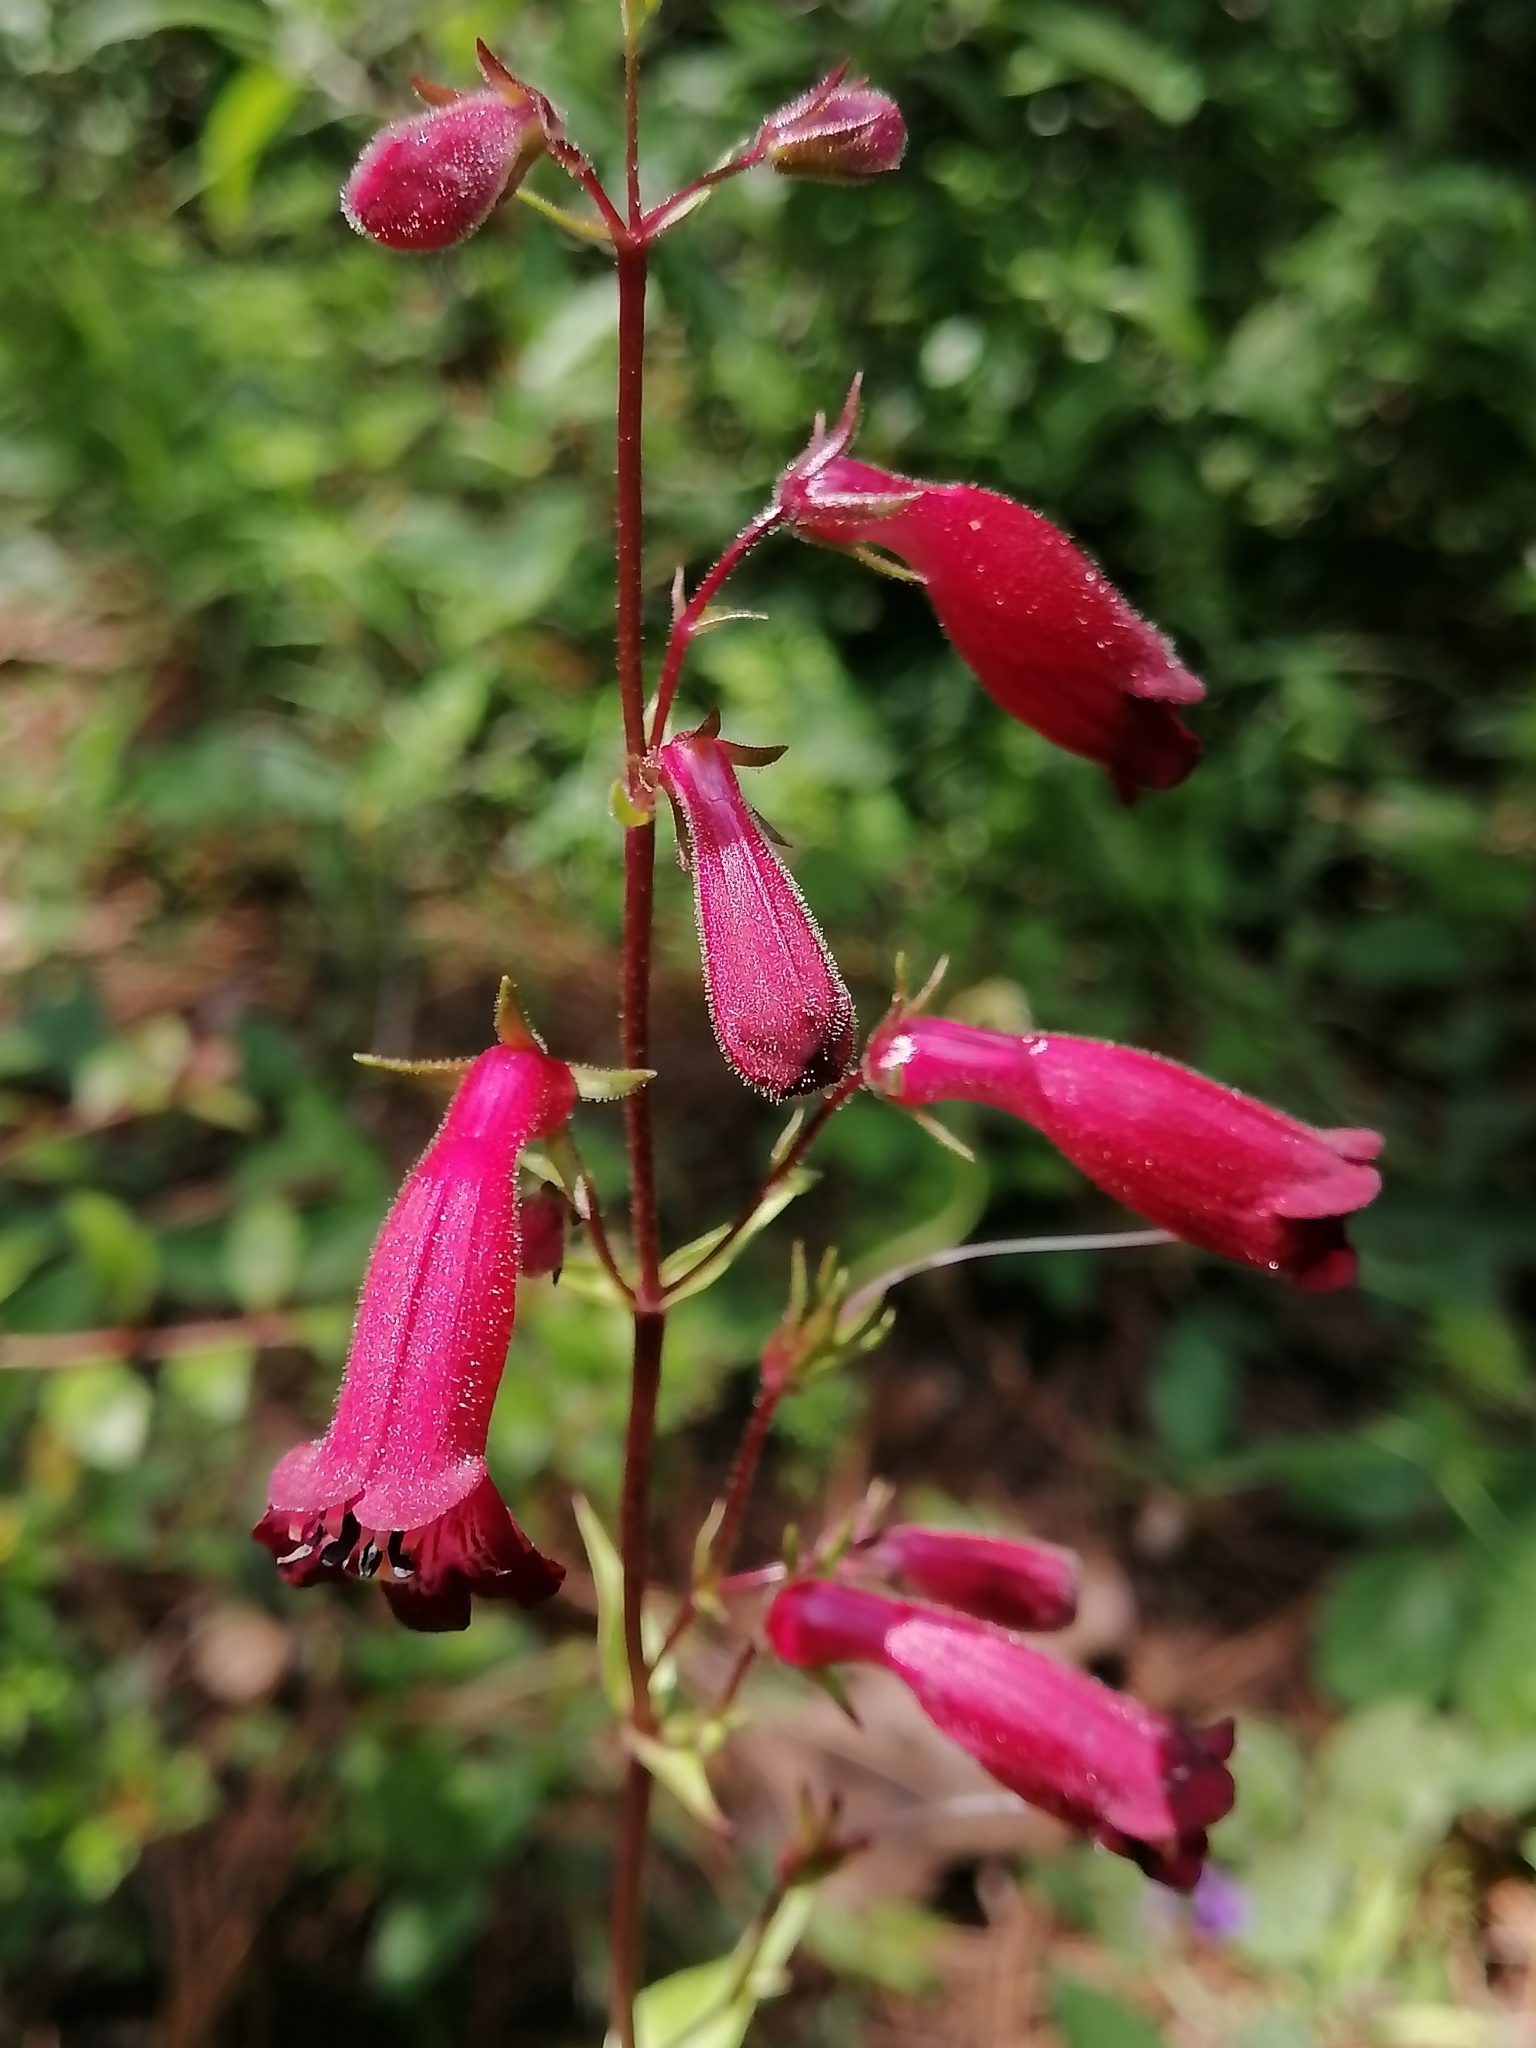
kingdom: Plantae
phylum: Tracheophyta
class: Magnoliopsida
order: Lamiales
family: Plantaginaceae
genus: Penstemon
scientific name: Penstemon roseus
